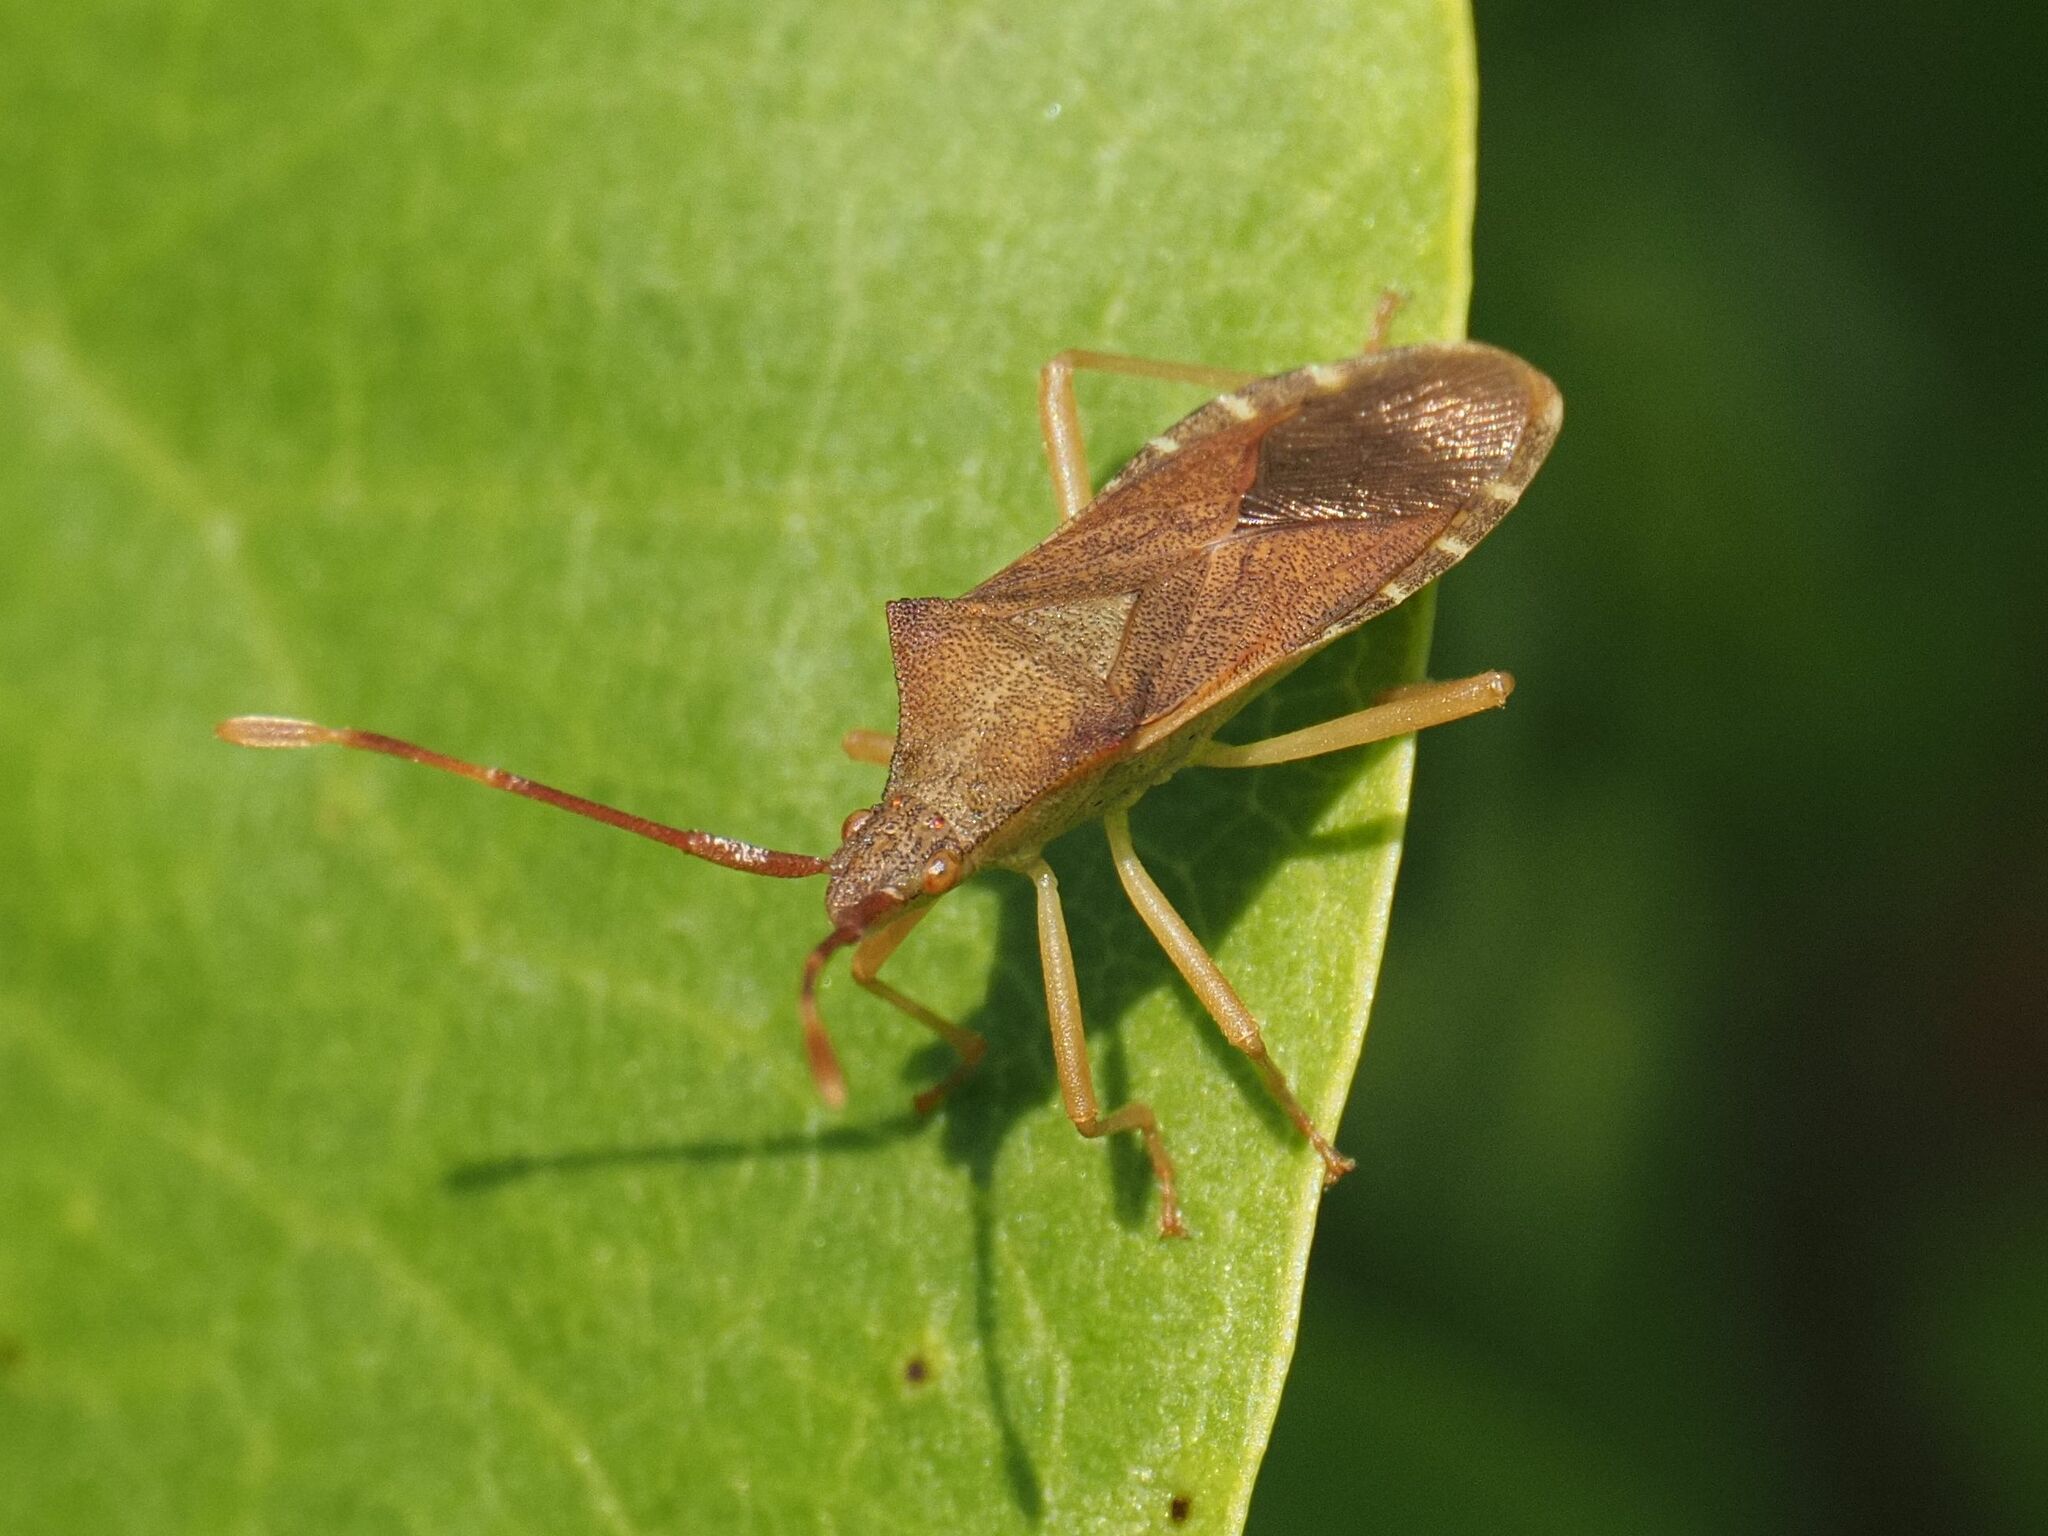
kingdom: Animalia
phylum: Arthropoda
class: Insecta
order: Hemiptera
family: Coreidae
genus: Gonocerus
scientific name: Gonocerus acuteangulatus
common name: Box bug
